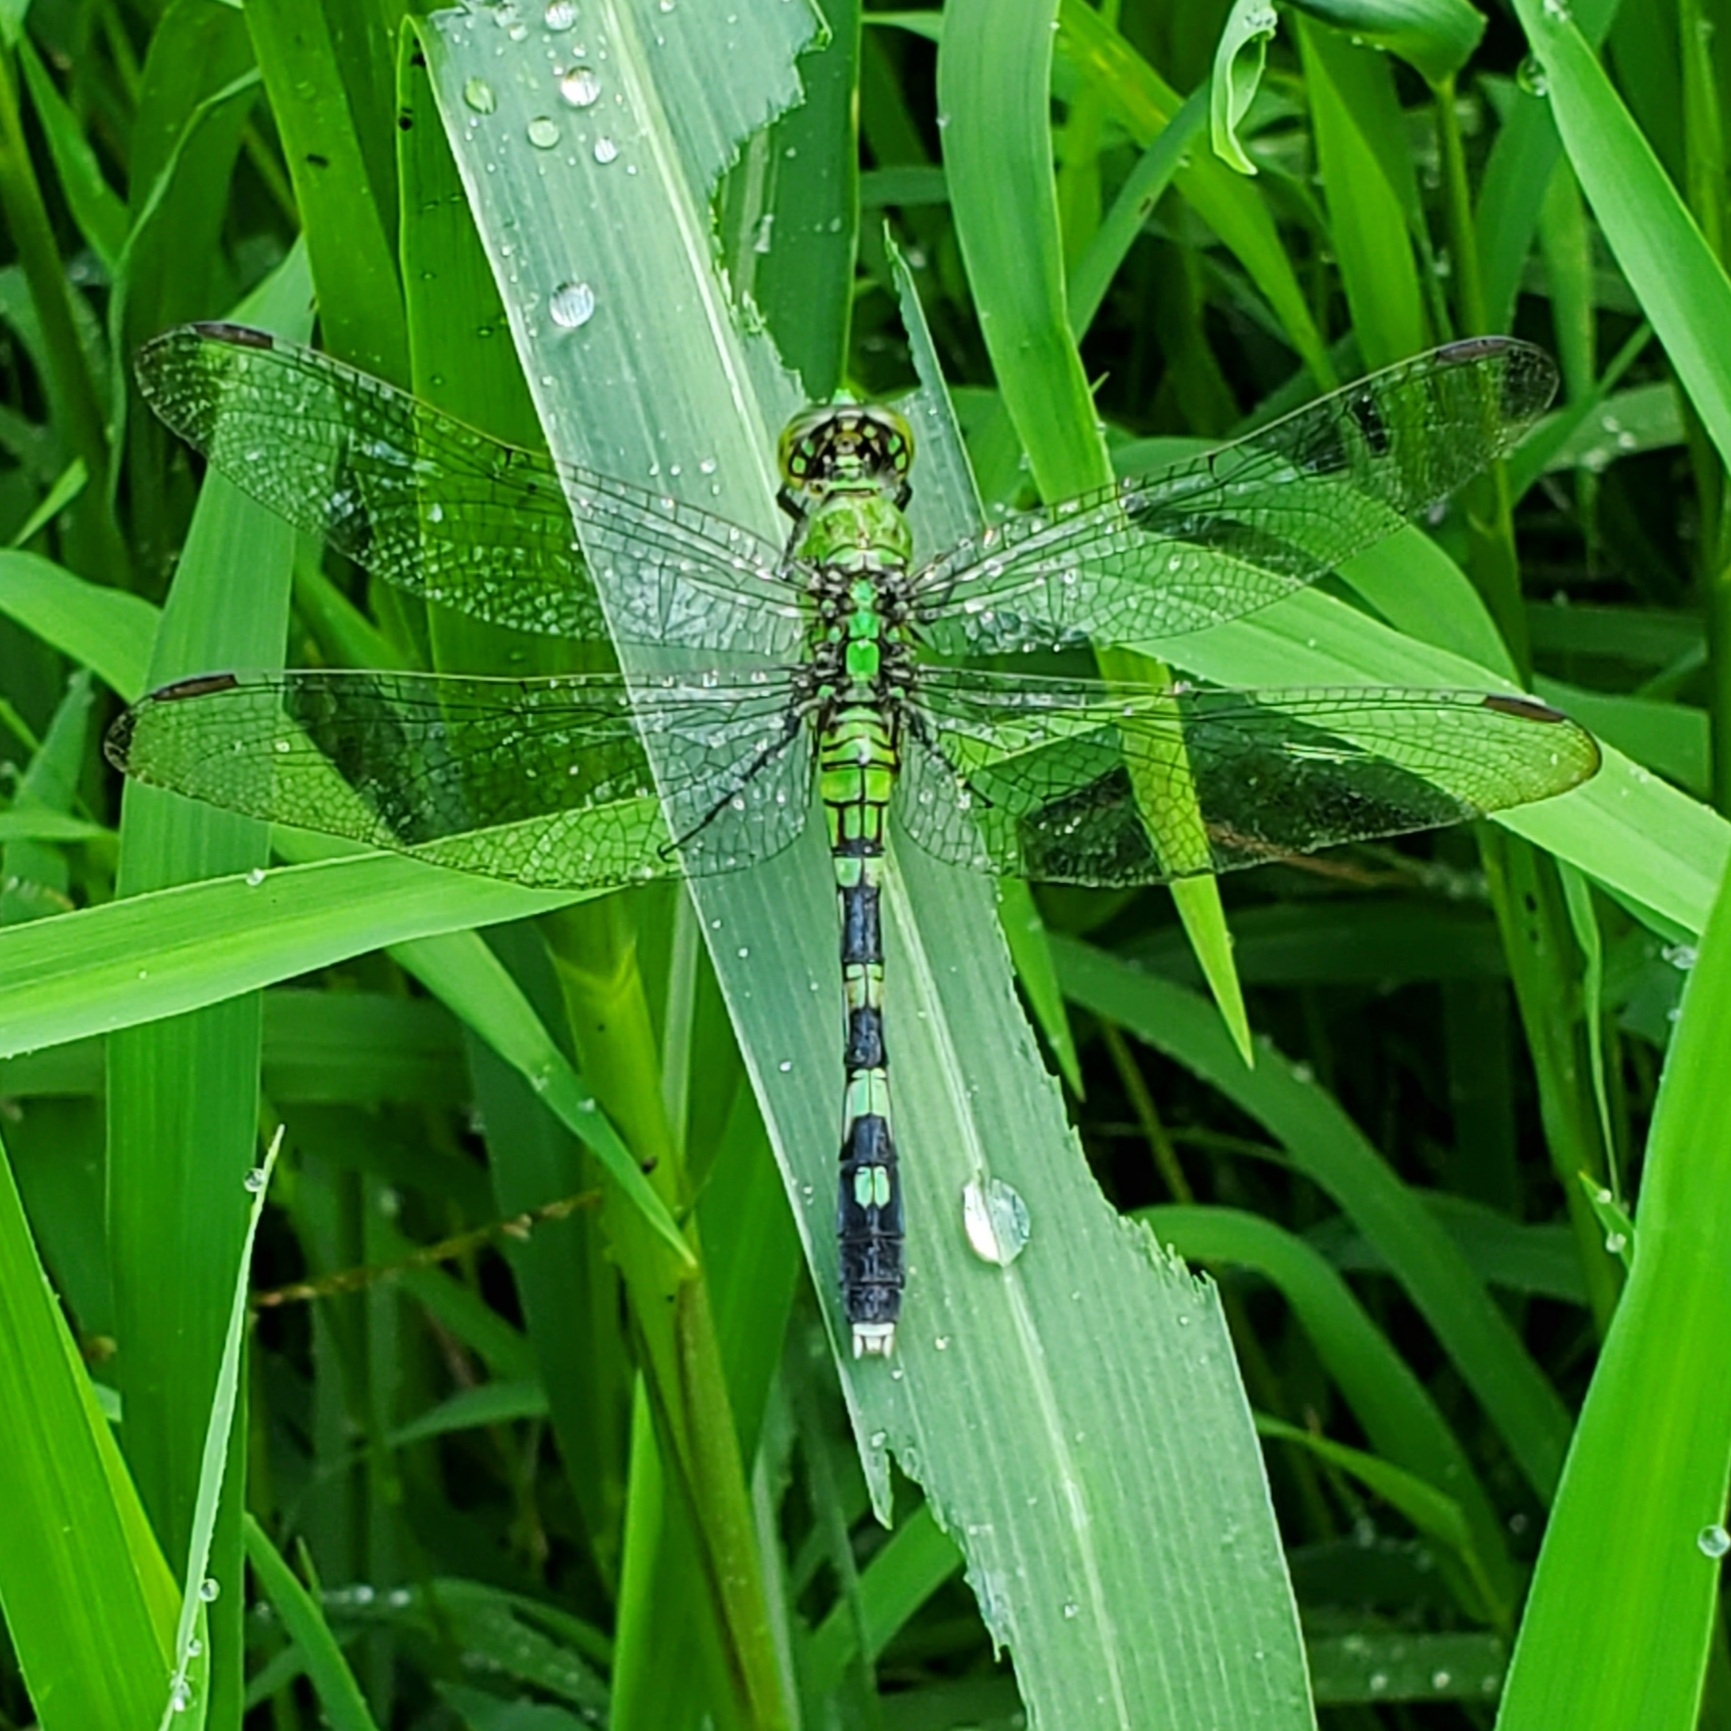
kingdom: Animalia
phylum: Arthropoda
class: Insecta
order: Odonata
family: Libellulidae
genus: Erythemis
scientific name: Erythemis simplicicollis
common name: Eastern pondhawk
